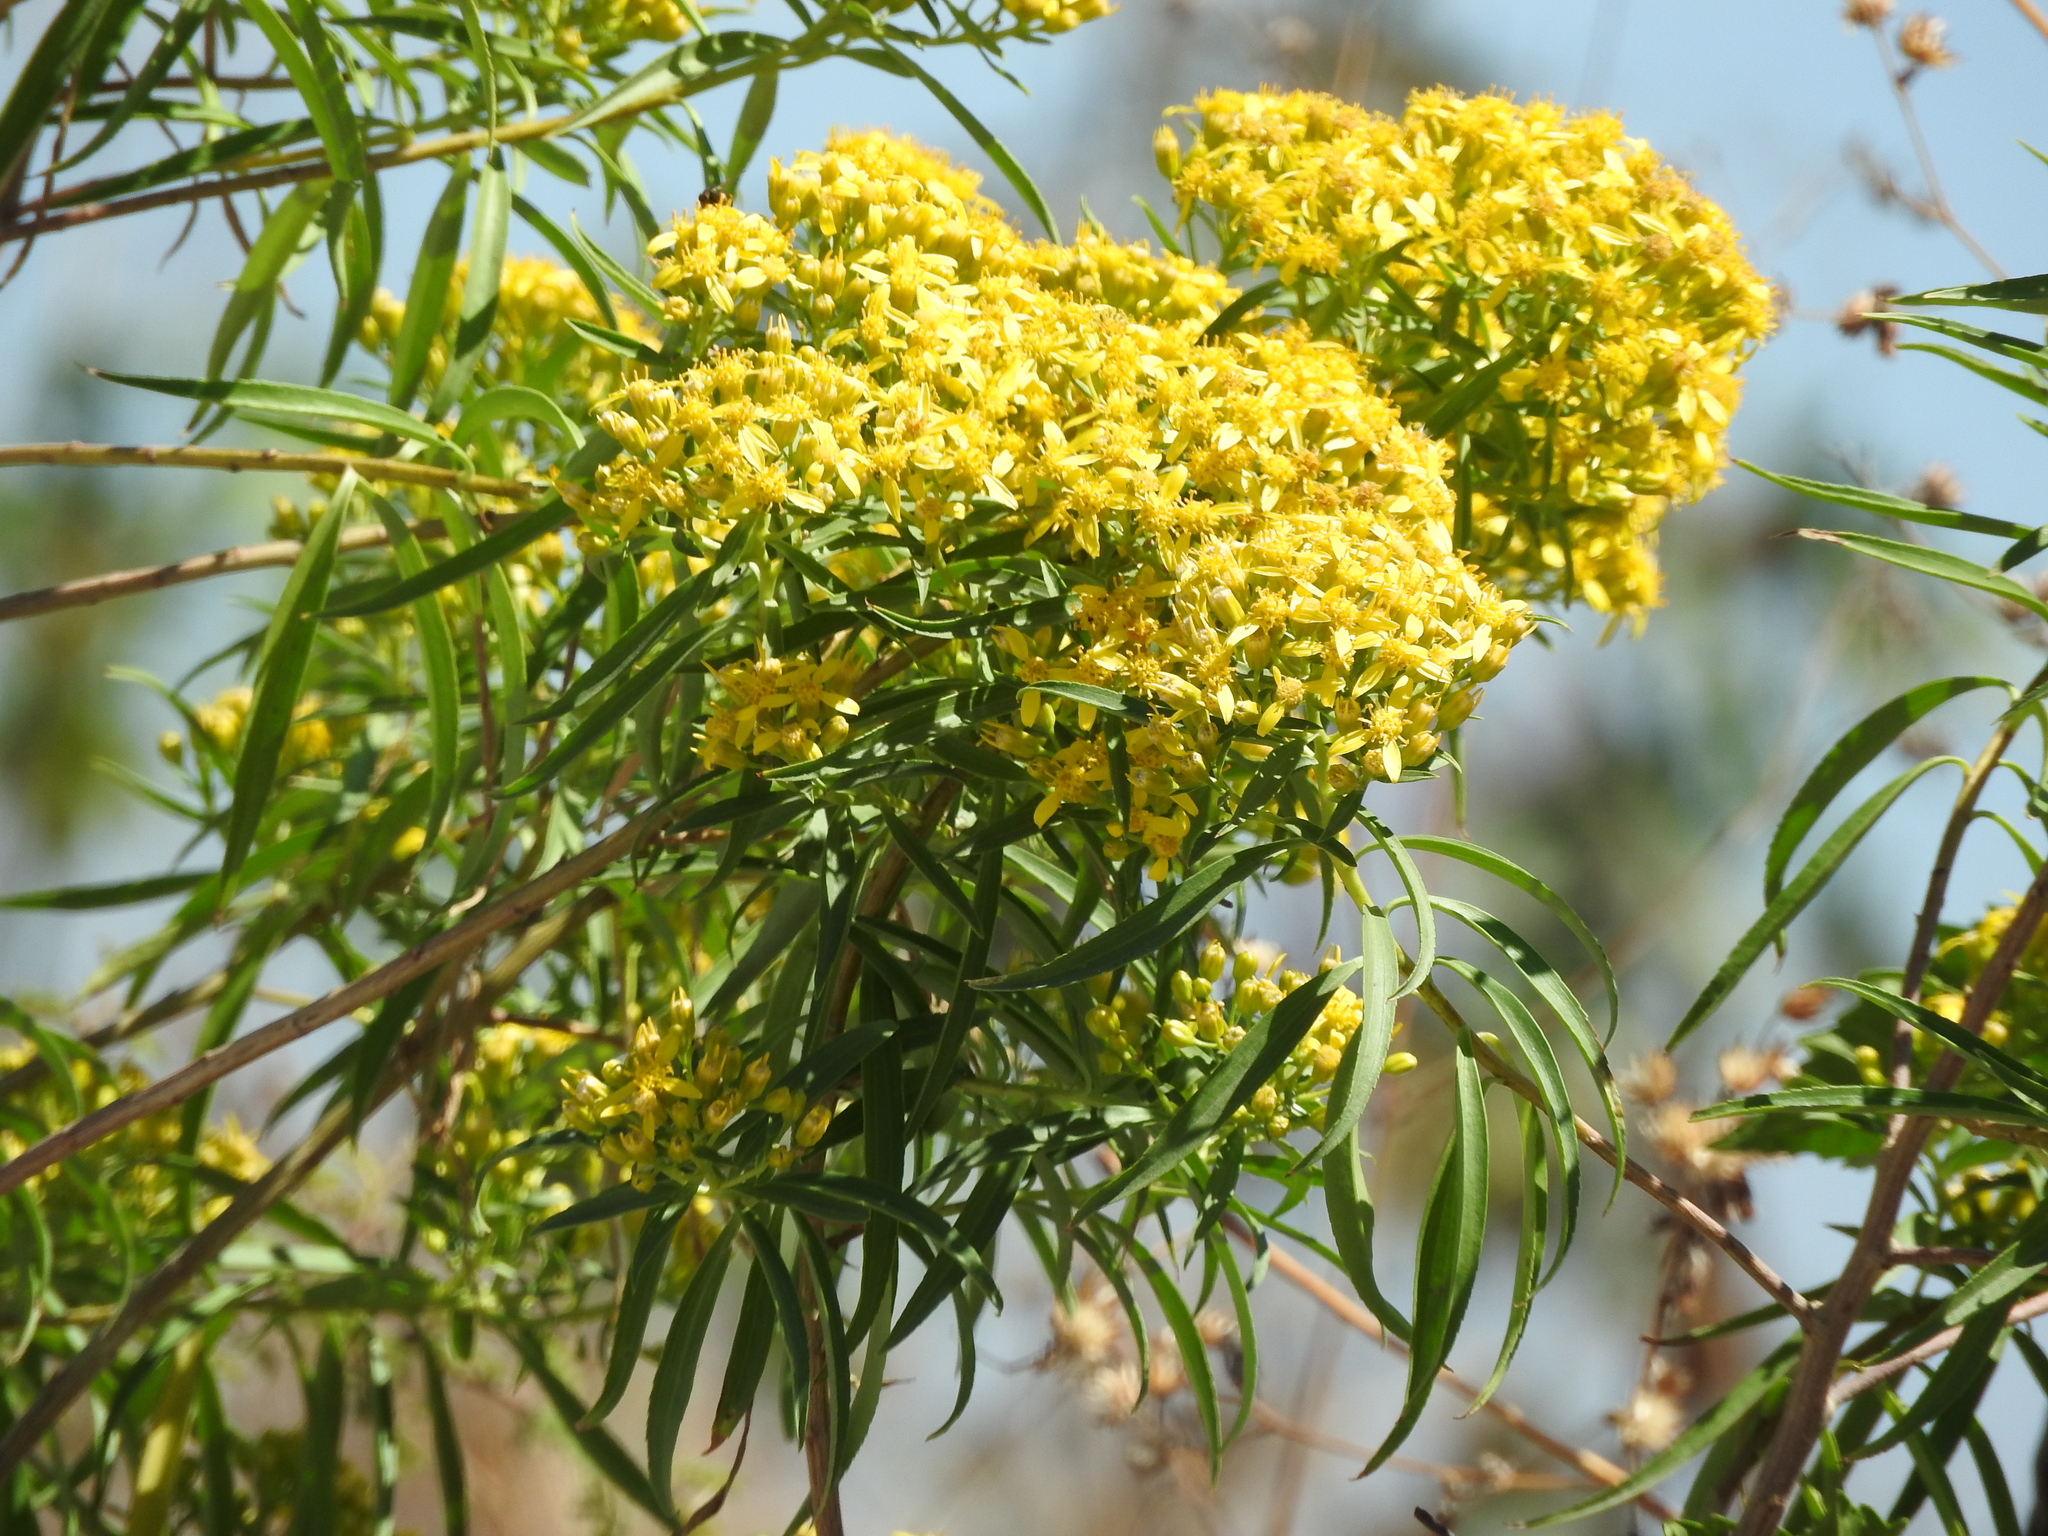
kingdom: Plantae
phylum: Tracheophyta
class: Magnoliopsida
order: Asterales
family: Asteraceae
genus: Barkleyanthus
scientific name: Barkleyanthus salicifolius
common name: Willow ragwort
